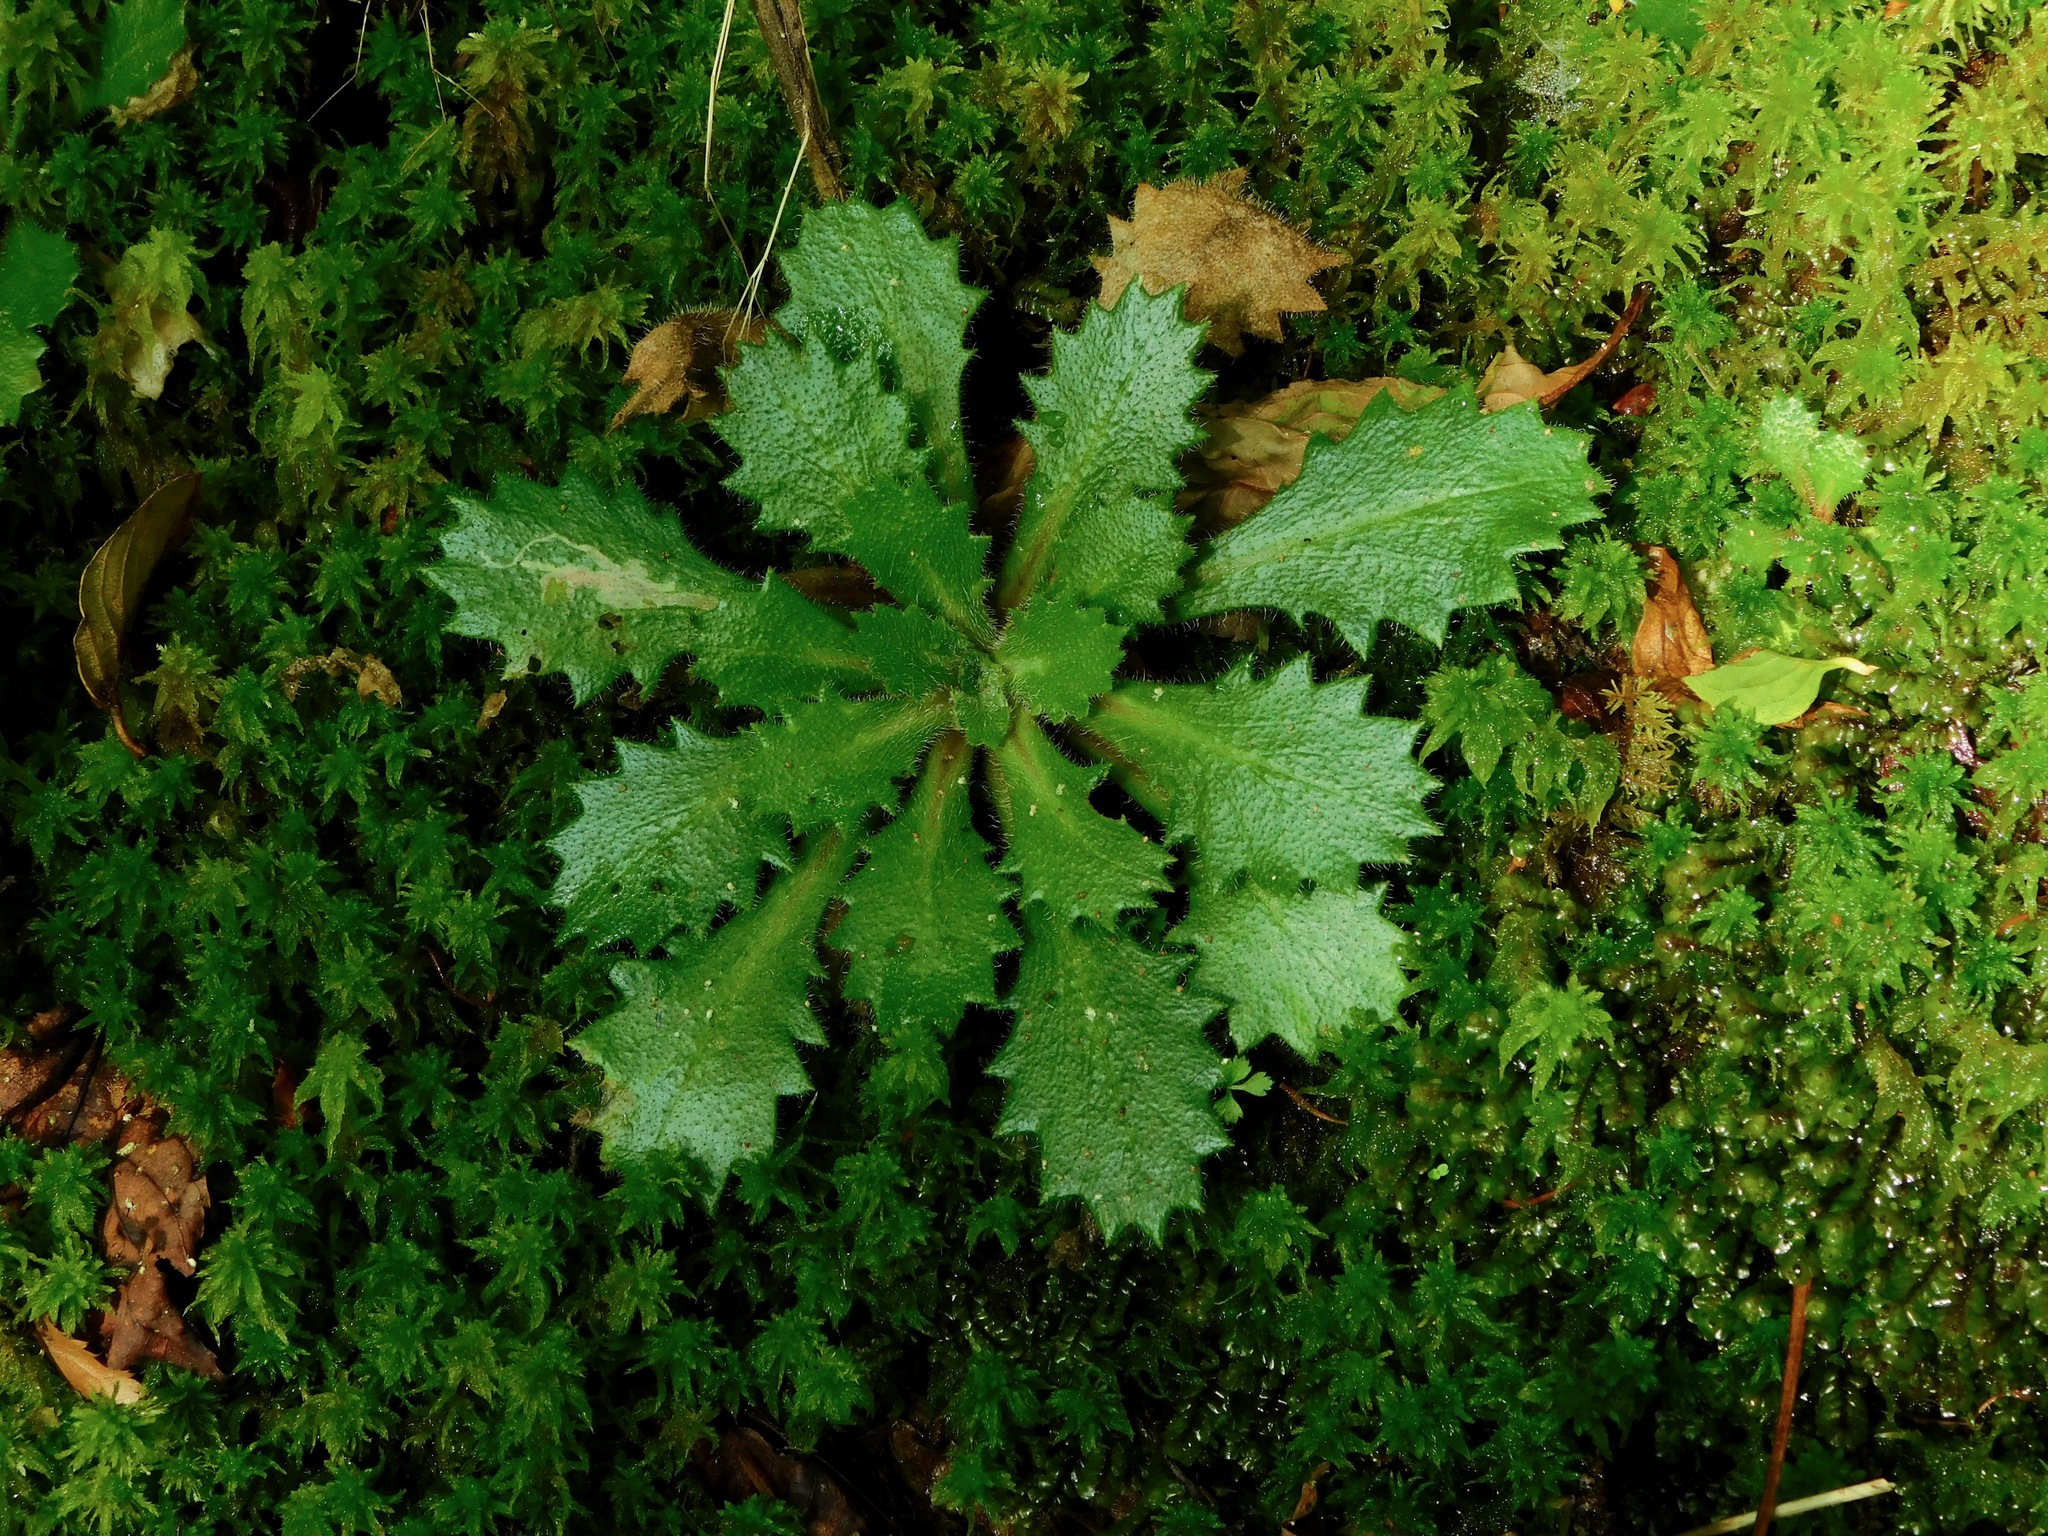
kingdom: Plantae
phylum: Tracheophyta
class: Magnoliopsida
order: Saxifragales
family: Saxifragaceae
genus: Micranthes
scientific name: Micranthes petiolaris
